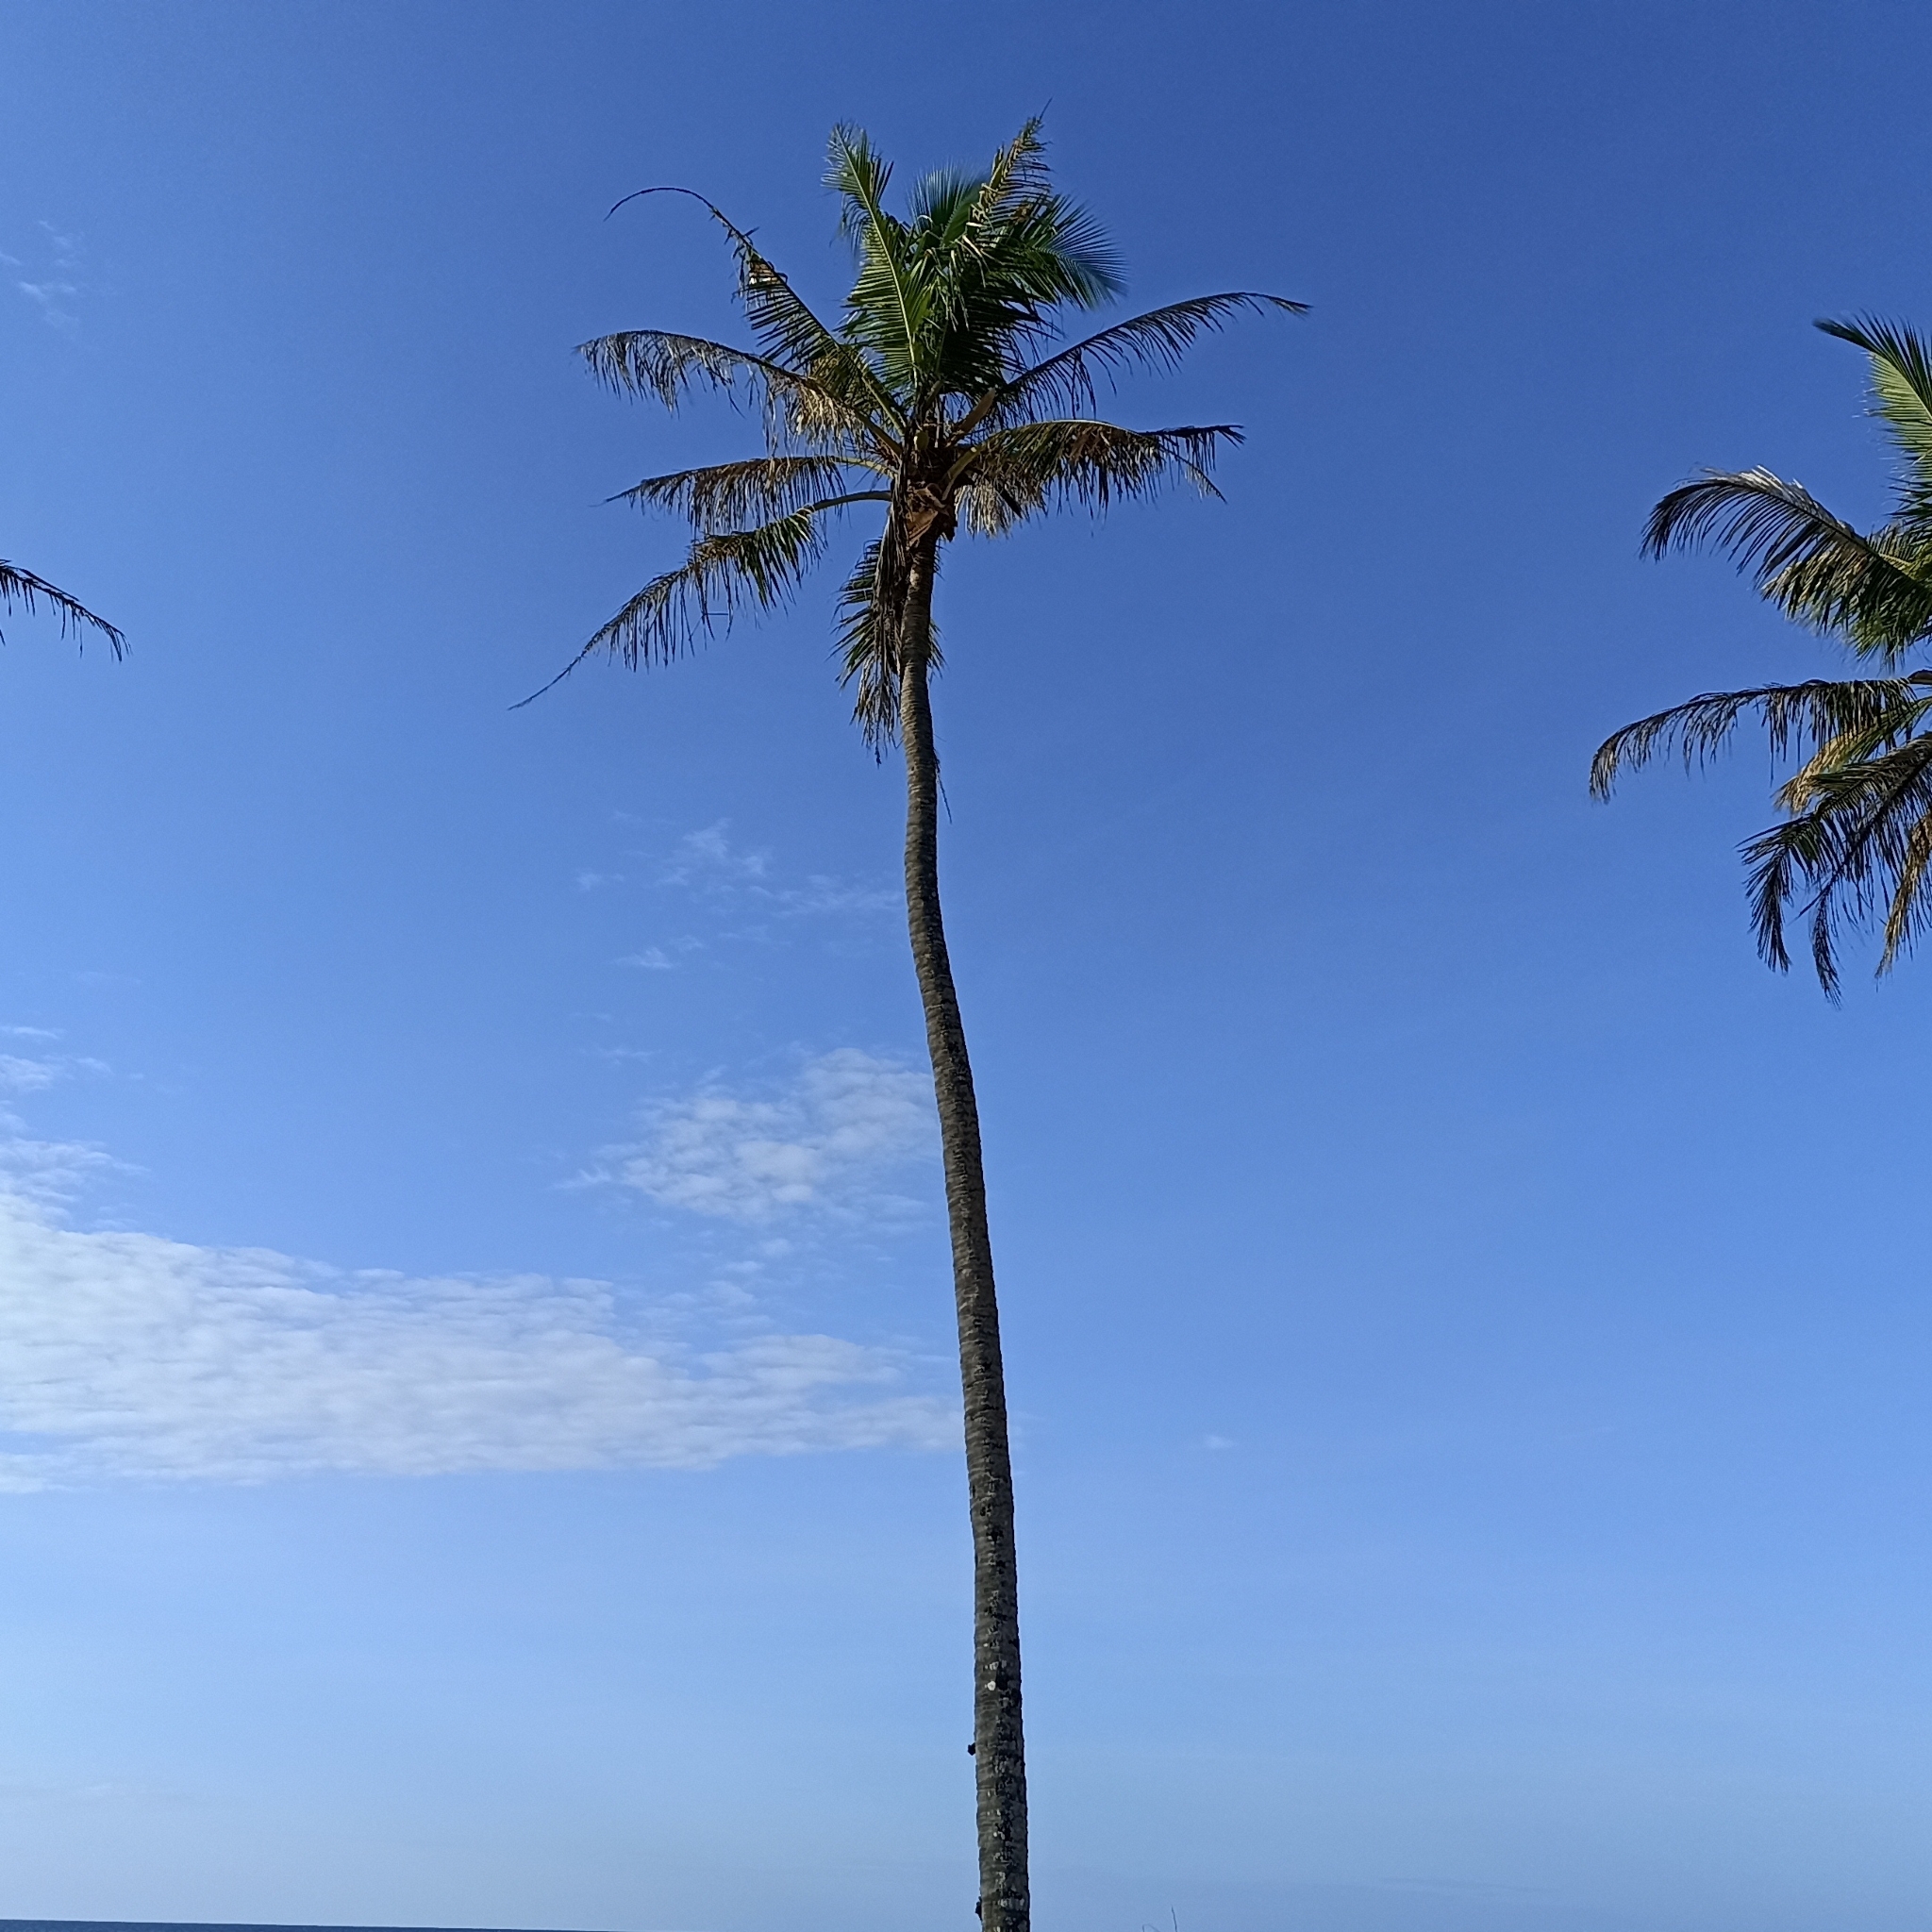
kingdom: Plantae
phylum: Tracheophyta
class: Liliopsida
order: Arecales
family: Arecaceae
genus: Cocos
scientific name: Cocos nucifera
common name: Coconut palm
